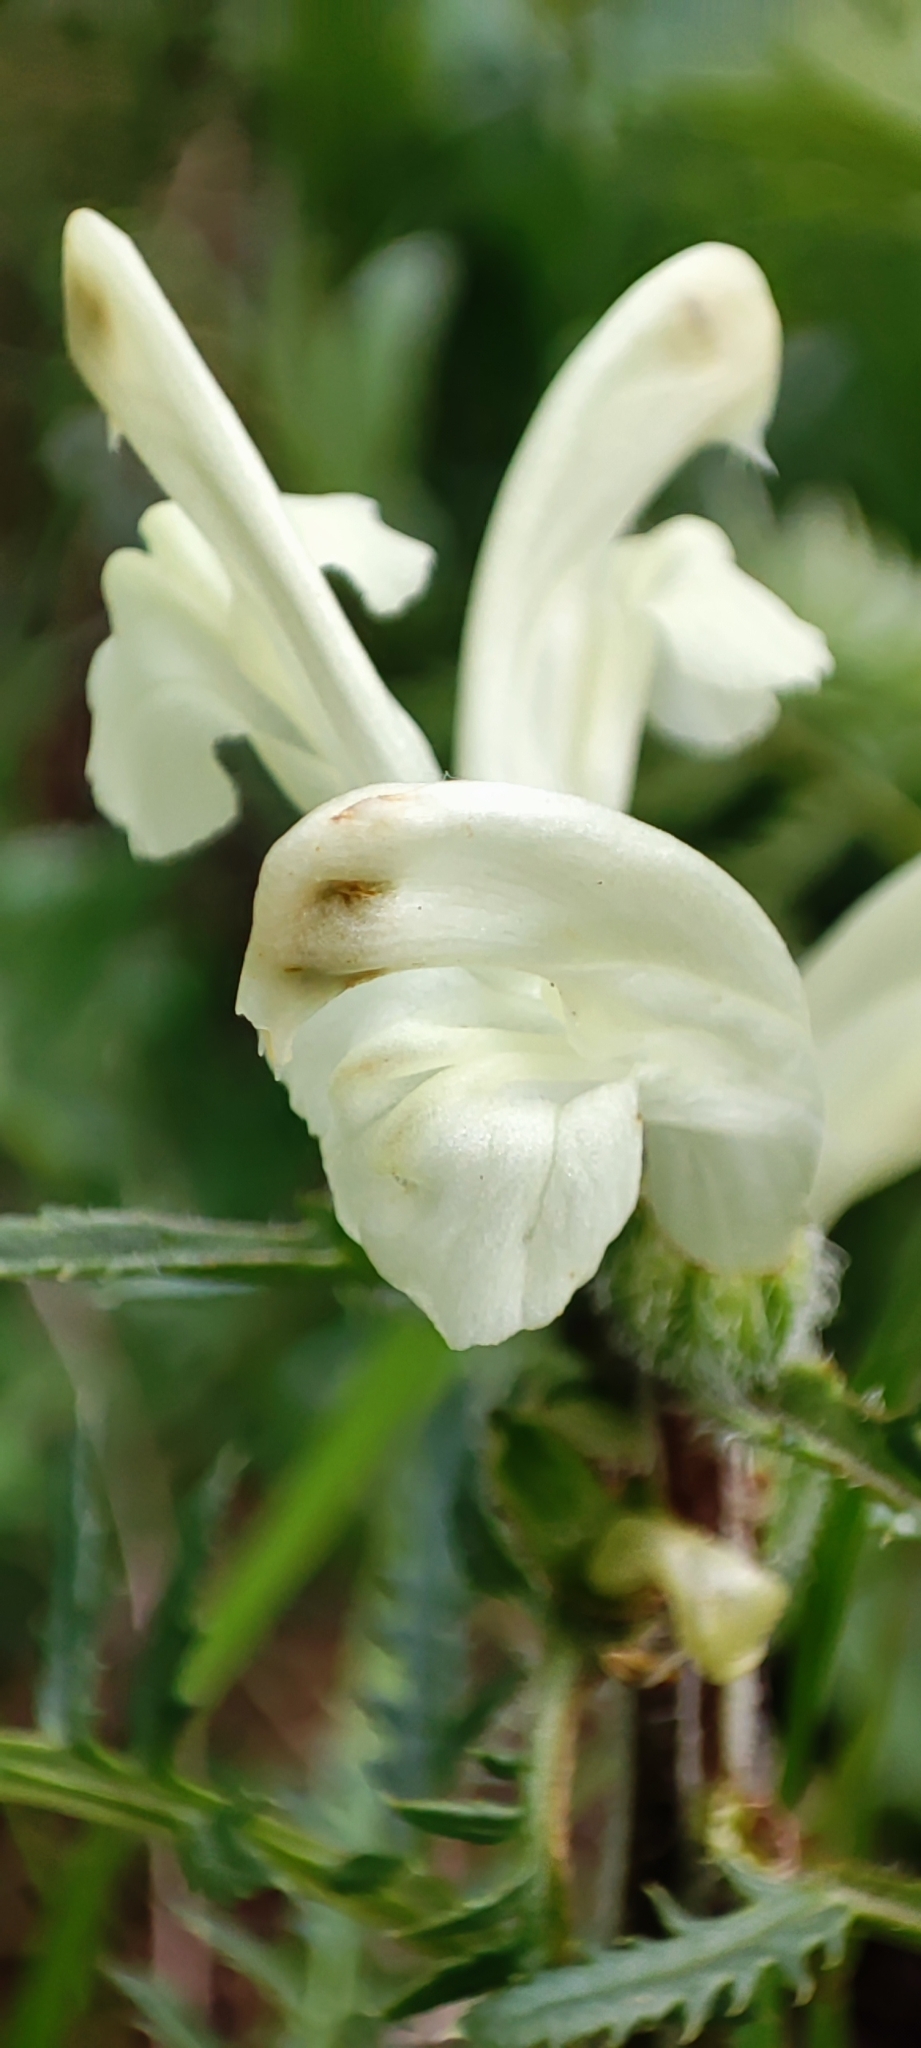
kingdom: Plantae
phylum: Tracheophyta
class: Magnoliopsida
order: Lamiales
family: Orobanchaceae
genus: Pedicularis
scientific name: Pedicularis sibirica
